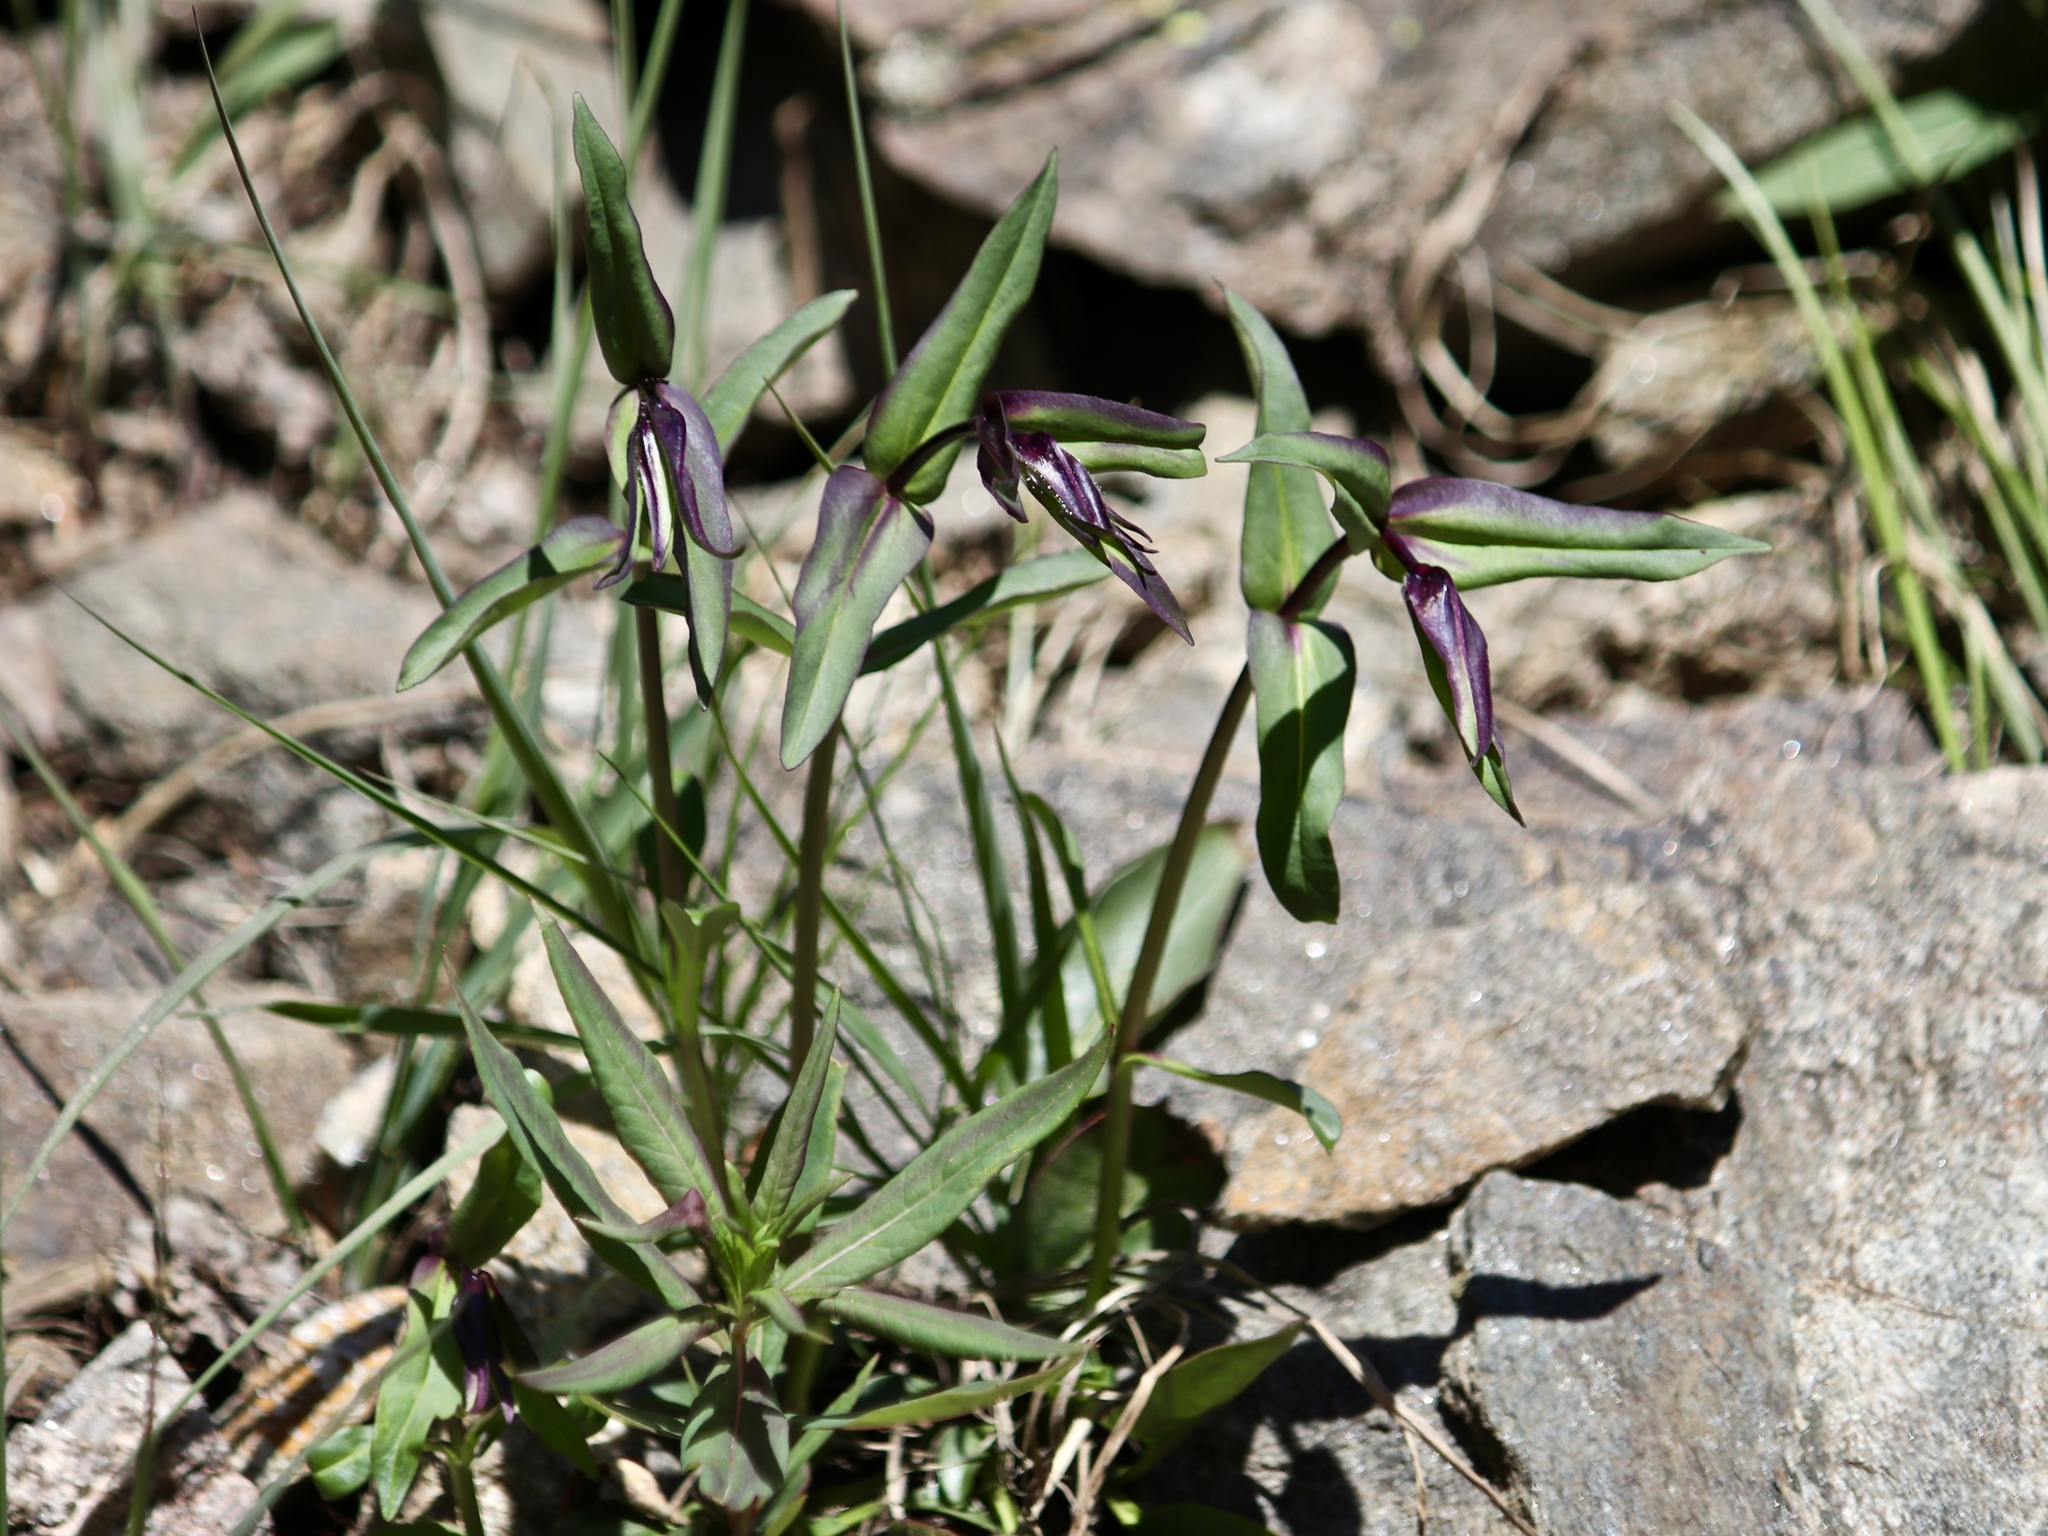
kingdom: Plantae
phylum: Tracheophyta
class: Magnoliopsida
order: Asterales
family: Campanulaceae
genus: Campanula
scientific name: Campanula uniflora
